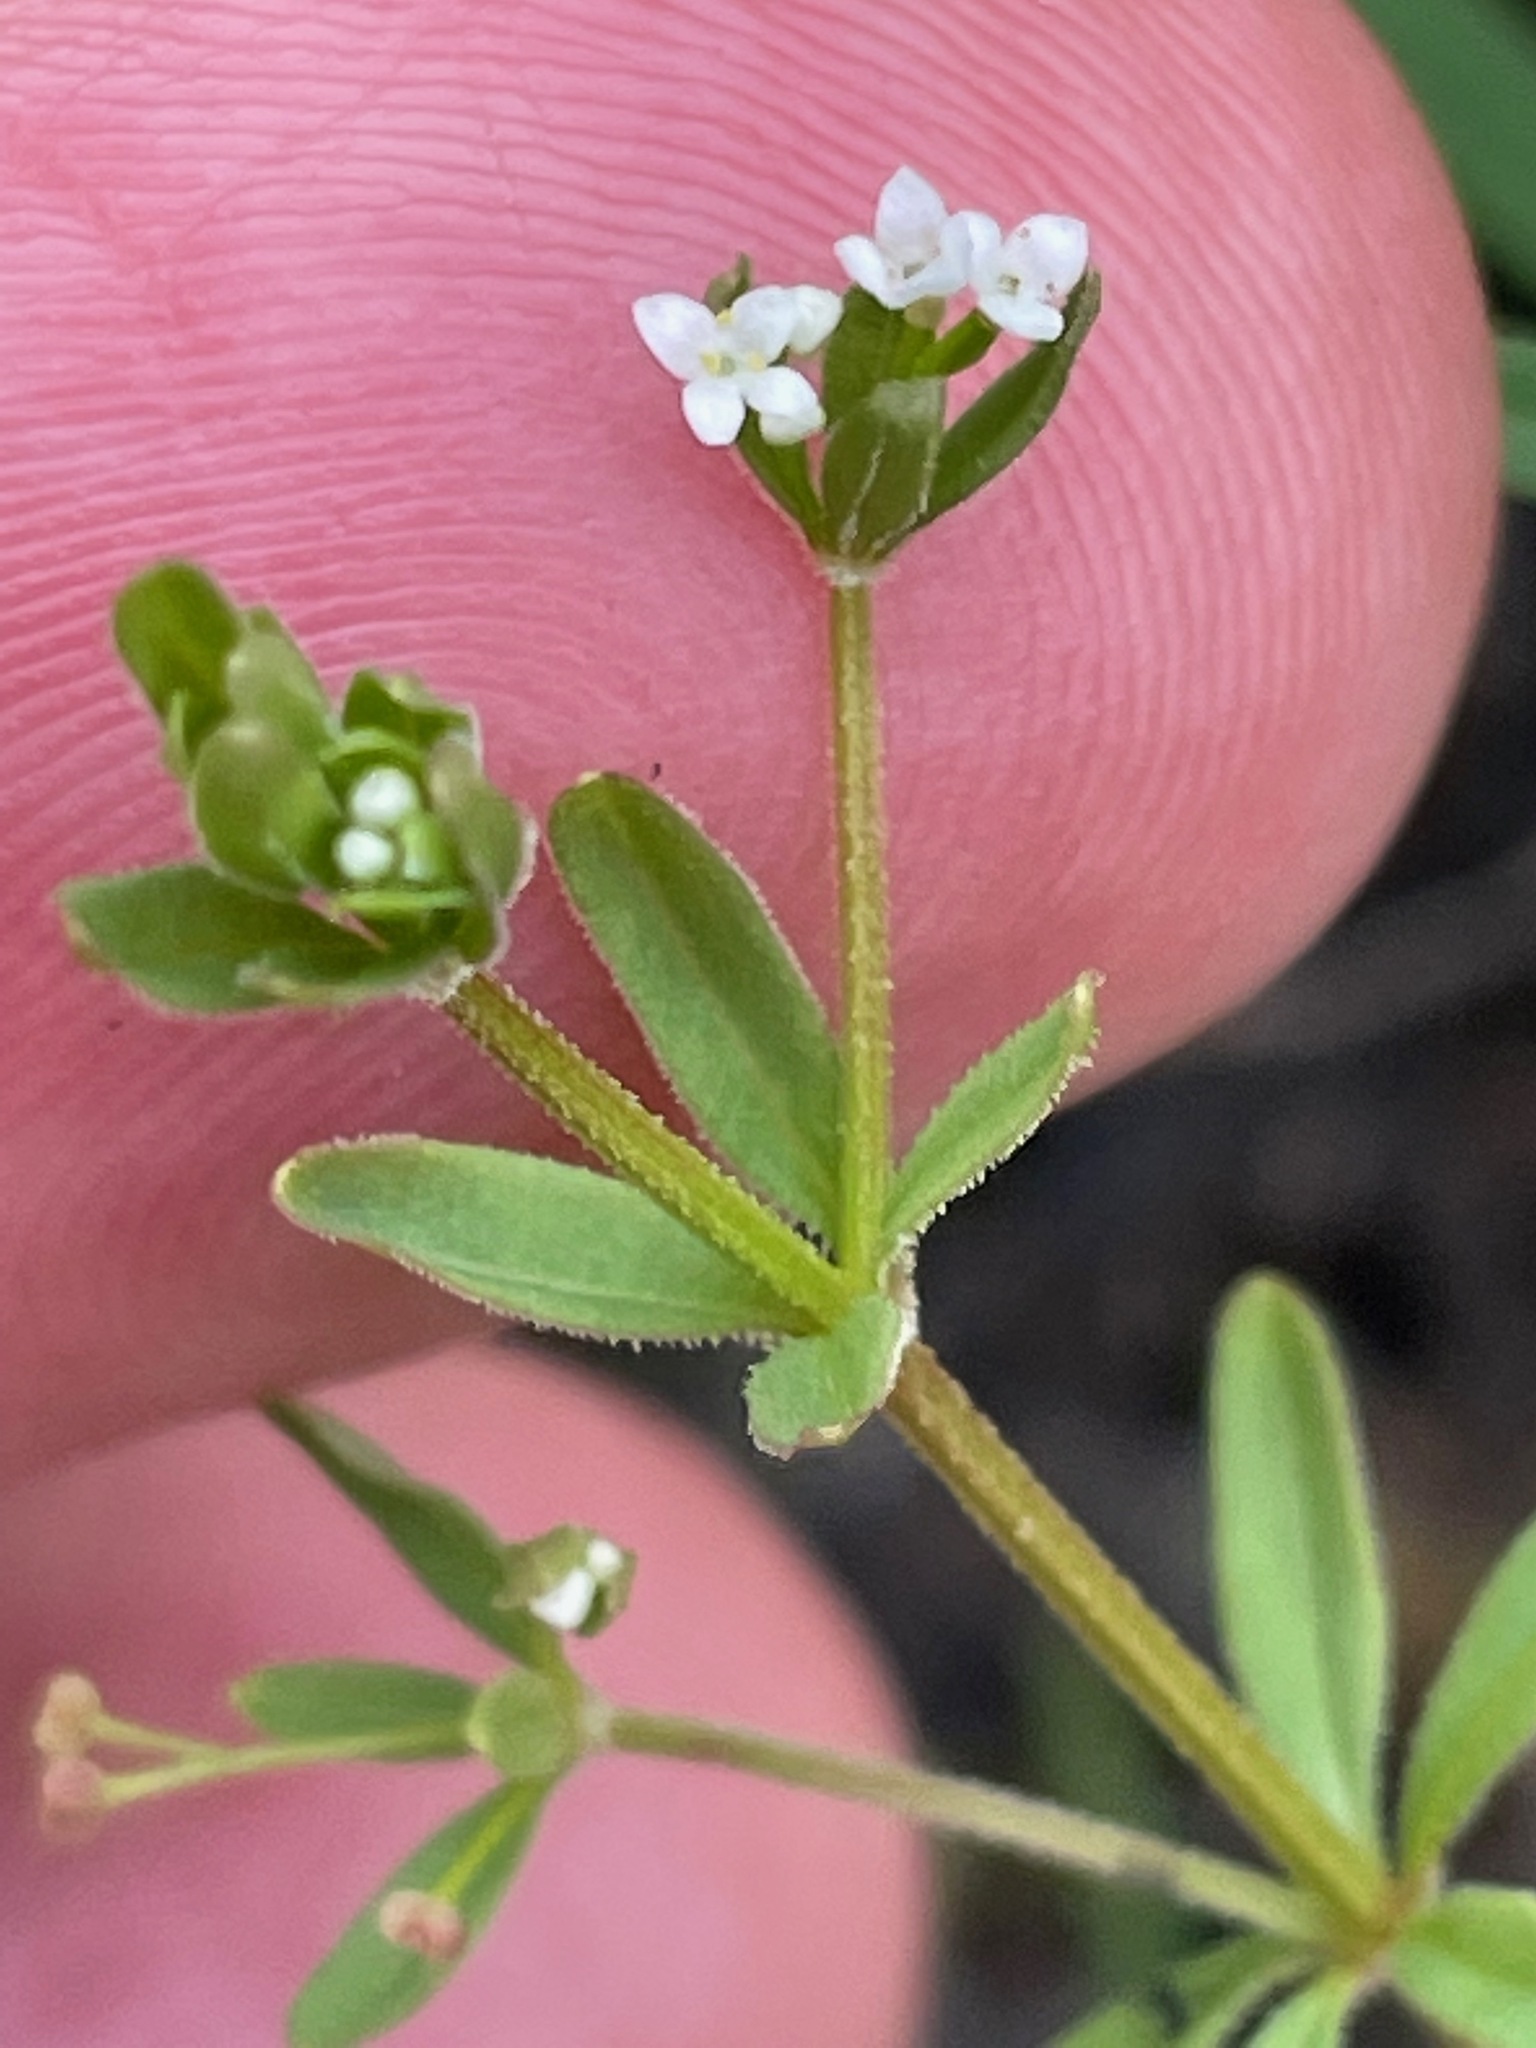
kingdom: Plantae
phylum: Tracheophyta
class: Magnoliopsida
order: Gentianales
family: Rubiaceae
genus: Galium
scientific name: Galium aparine
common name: Cleavers
